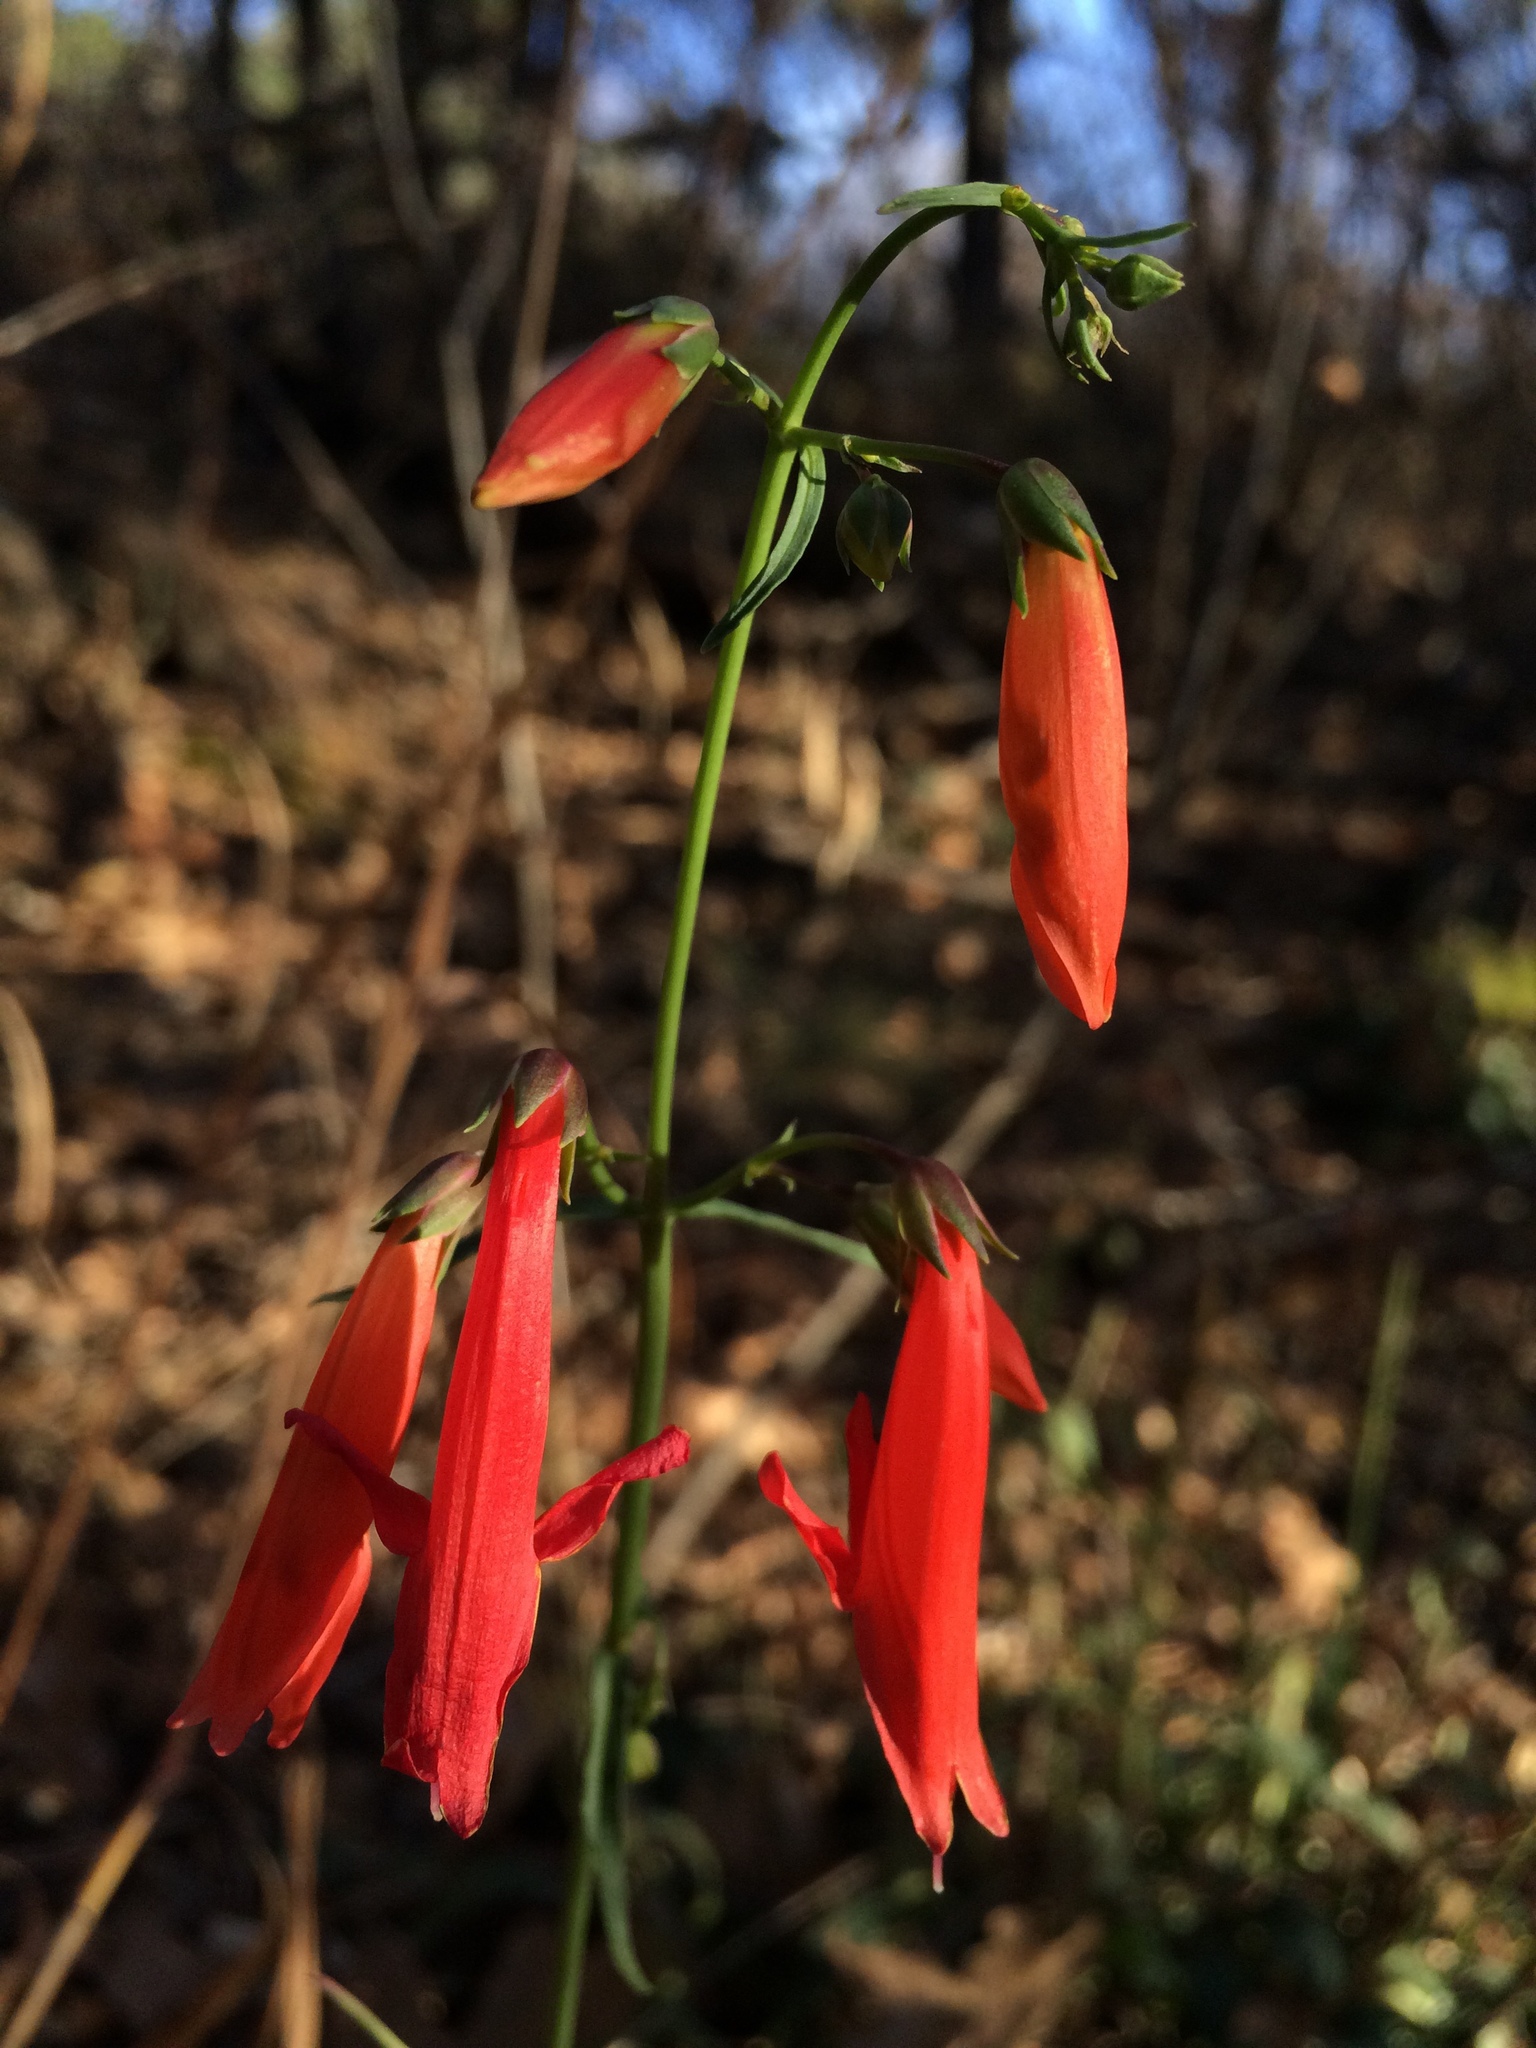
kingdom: Plantae
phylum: Tracheophyta
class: Magnoliopsida
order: Lamiales
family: Plantaginaceae
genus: Penstemon
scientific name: Penstemon barbatus
